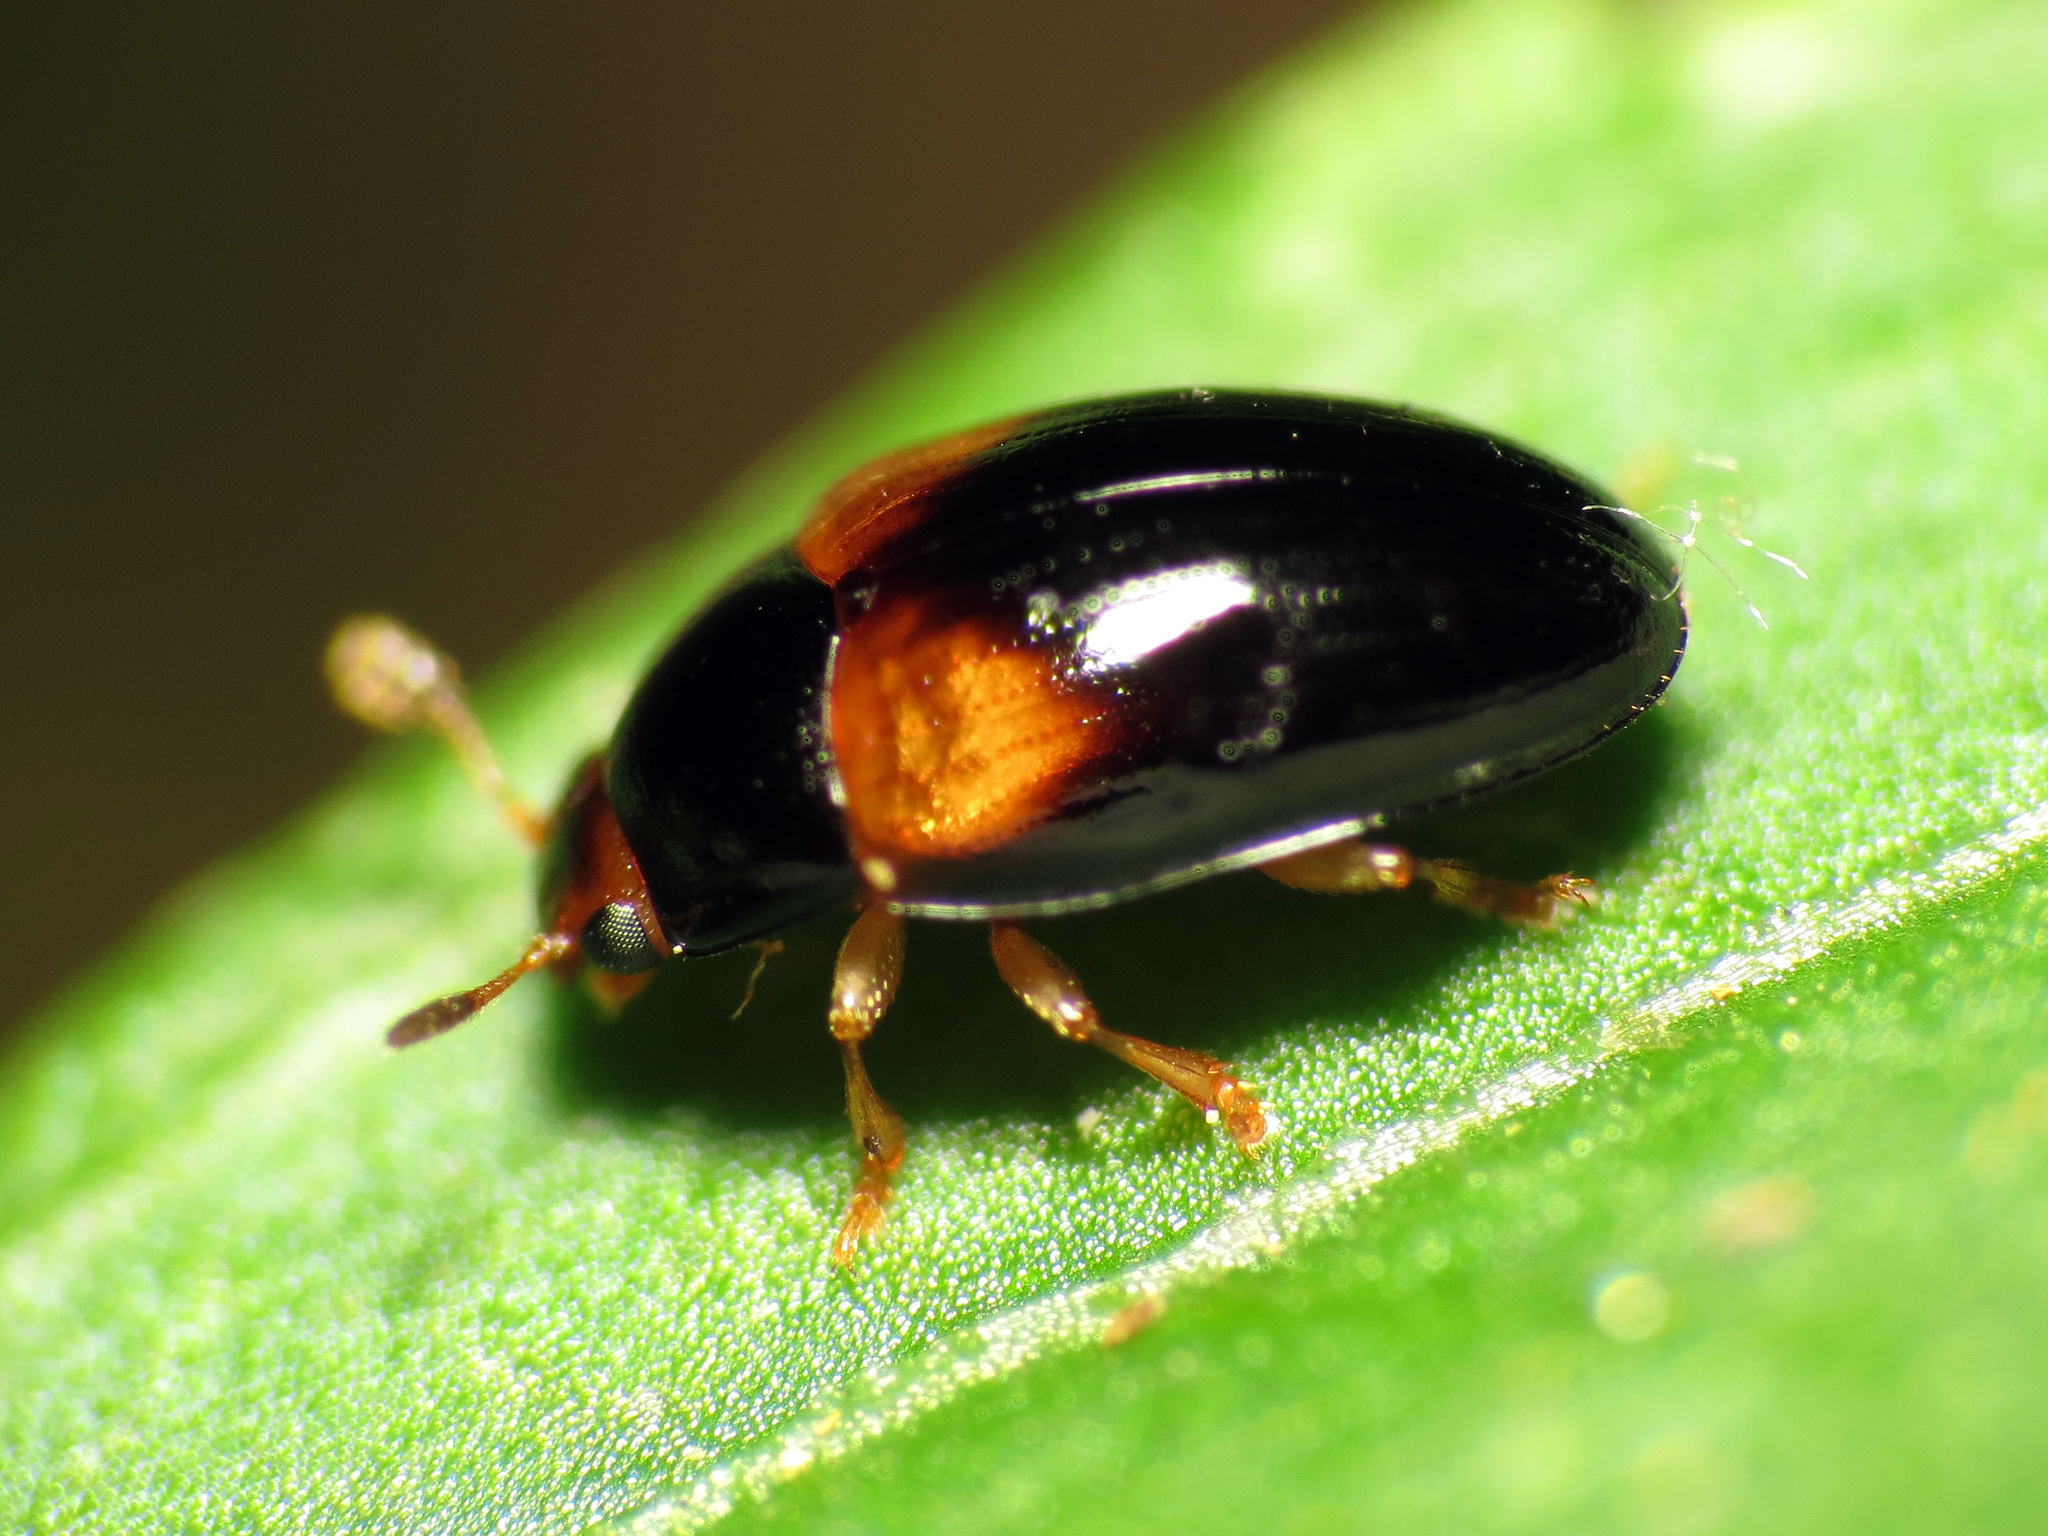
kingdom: Animalia
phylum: Arthropoda
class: Insecta
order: Coleoptera
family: Erotylidae
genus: Tritoma
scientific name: Tritoma biguttata
